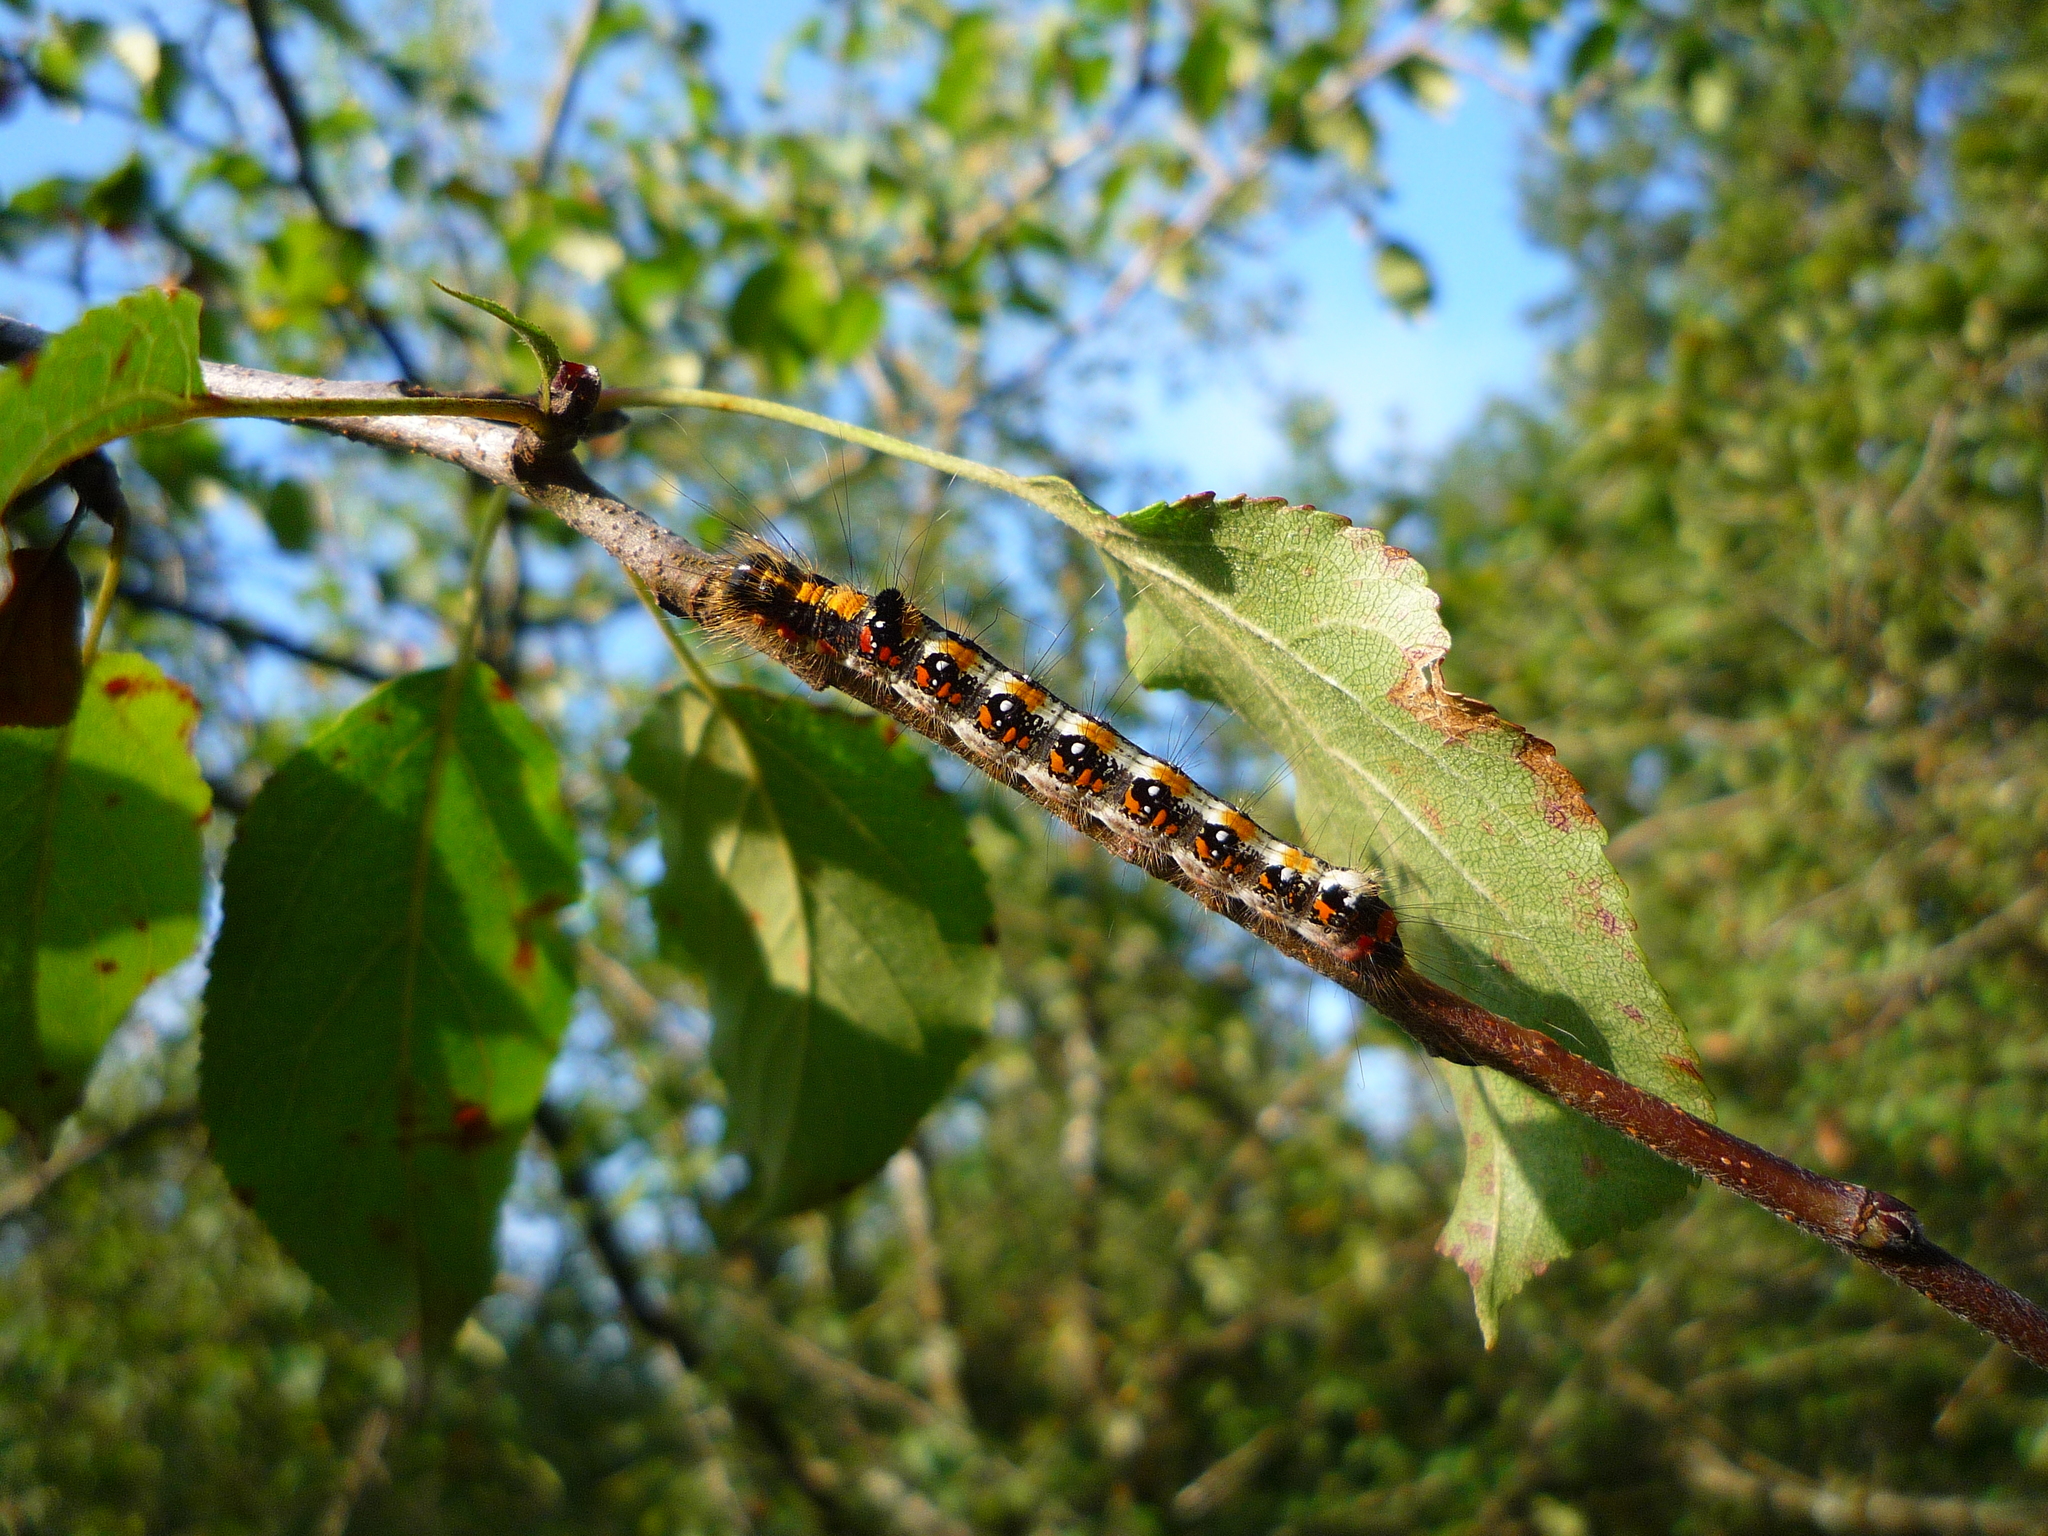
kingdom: Animalia
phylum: Arthropoda
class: Insecta
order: Lepidoptera
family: Noctuidae
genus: Acronicta
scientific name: Acronicta tridens
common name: Dark dagger
